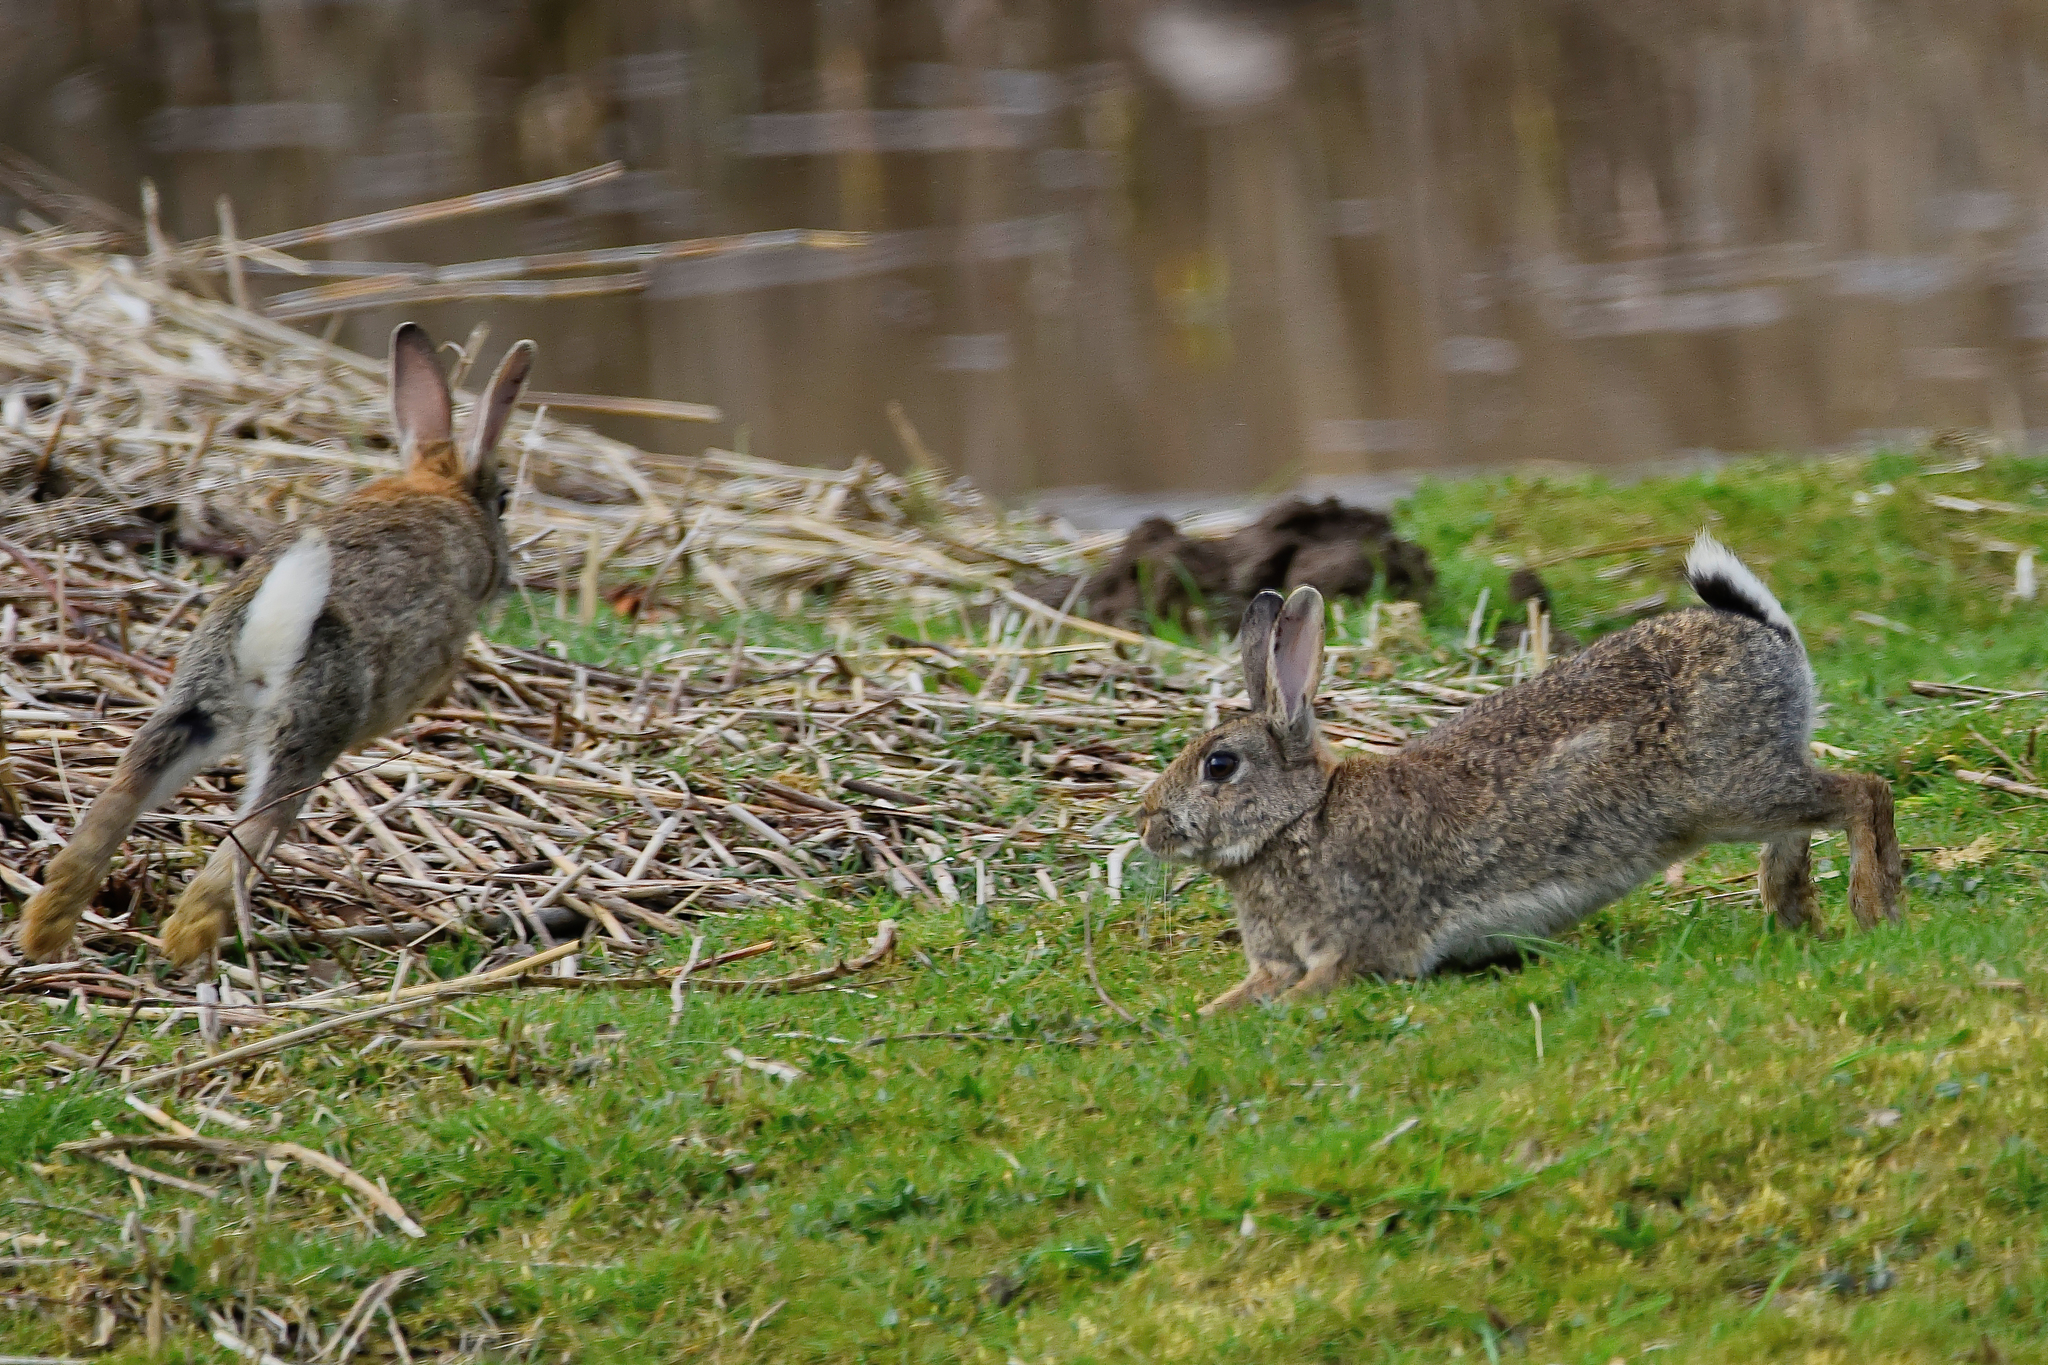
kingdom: Animalia
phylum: Chordata
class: Mammalia
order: Lagomorpha
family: Leporidae
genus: Oryctolagus
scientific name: Oryctolagus cuniculus
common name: European rabbit
